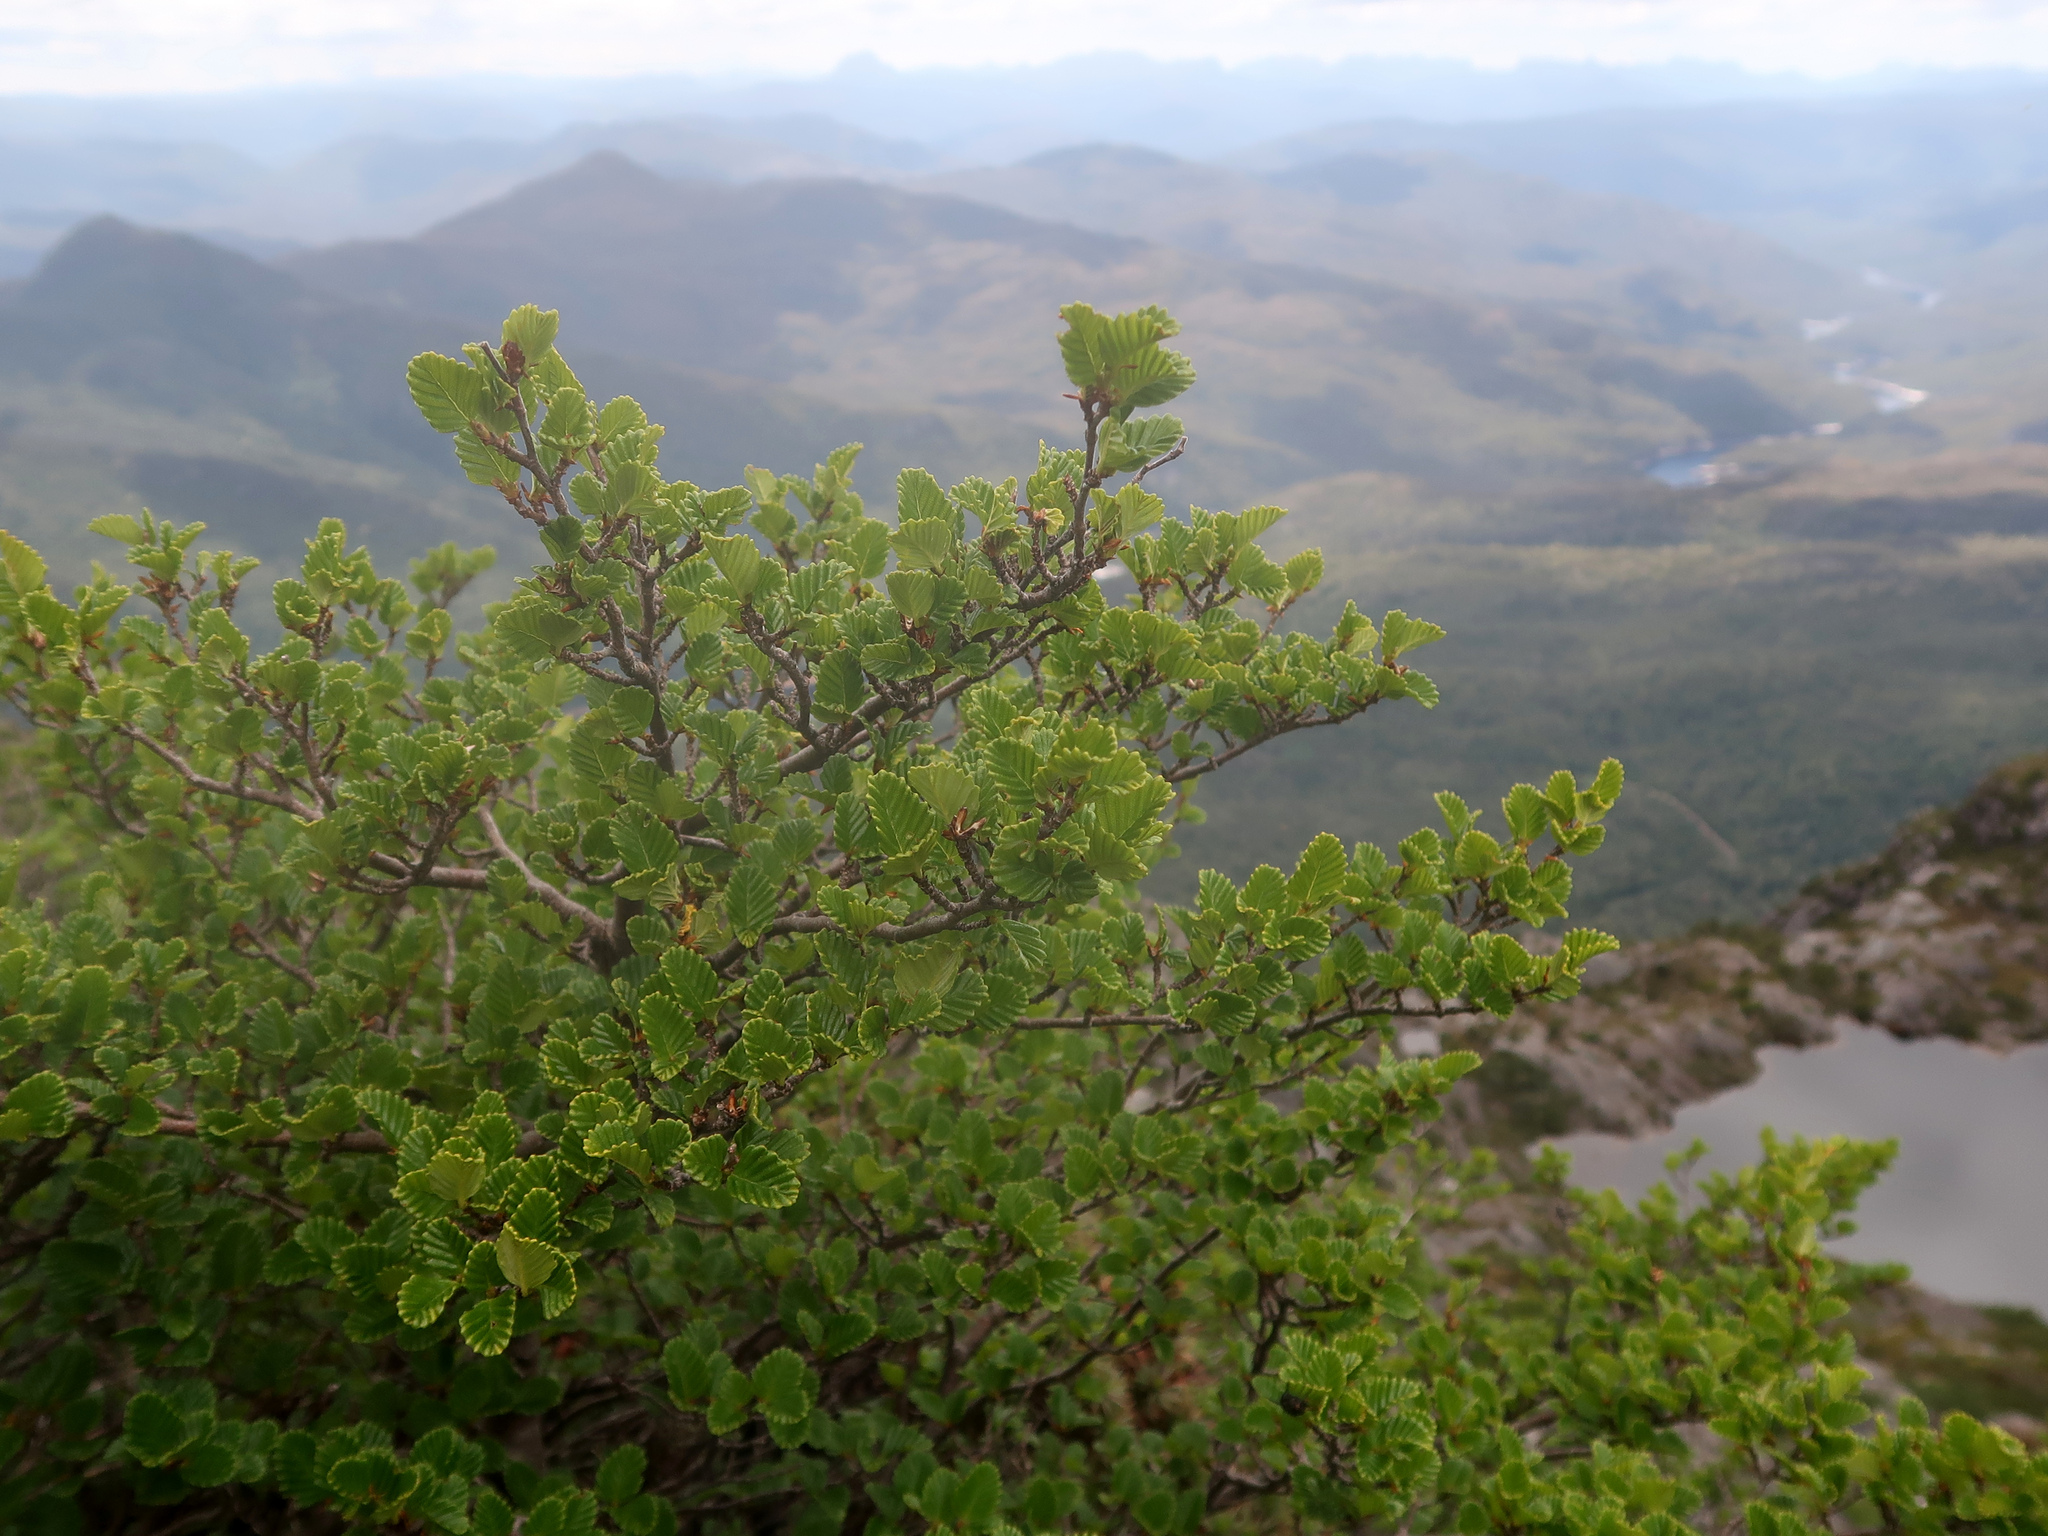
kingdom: Plantae
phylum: Tracheophyta
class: Magnoliopsida
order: Fagales
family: Nothofagaceae
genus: Nothofagus
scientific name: Nothofagus gunnii
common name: Tanglefoot
